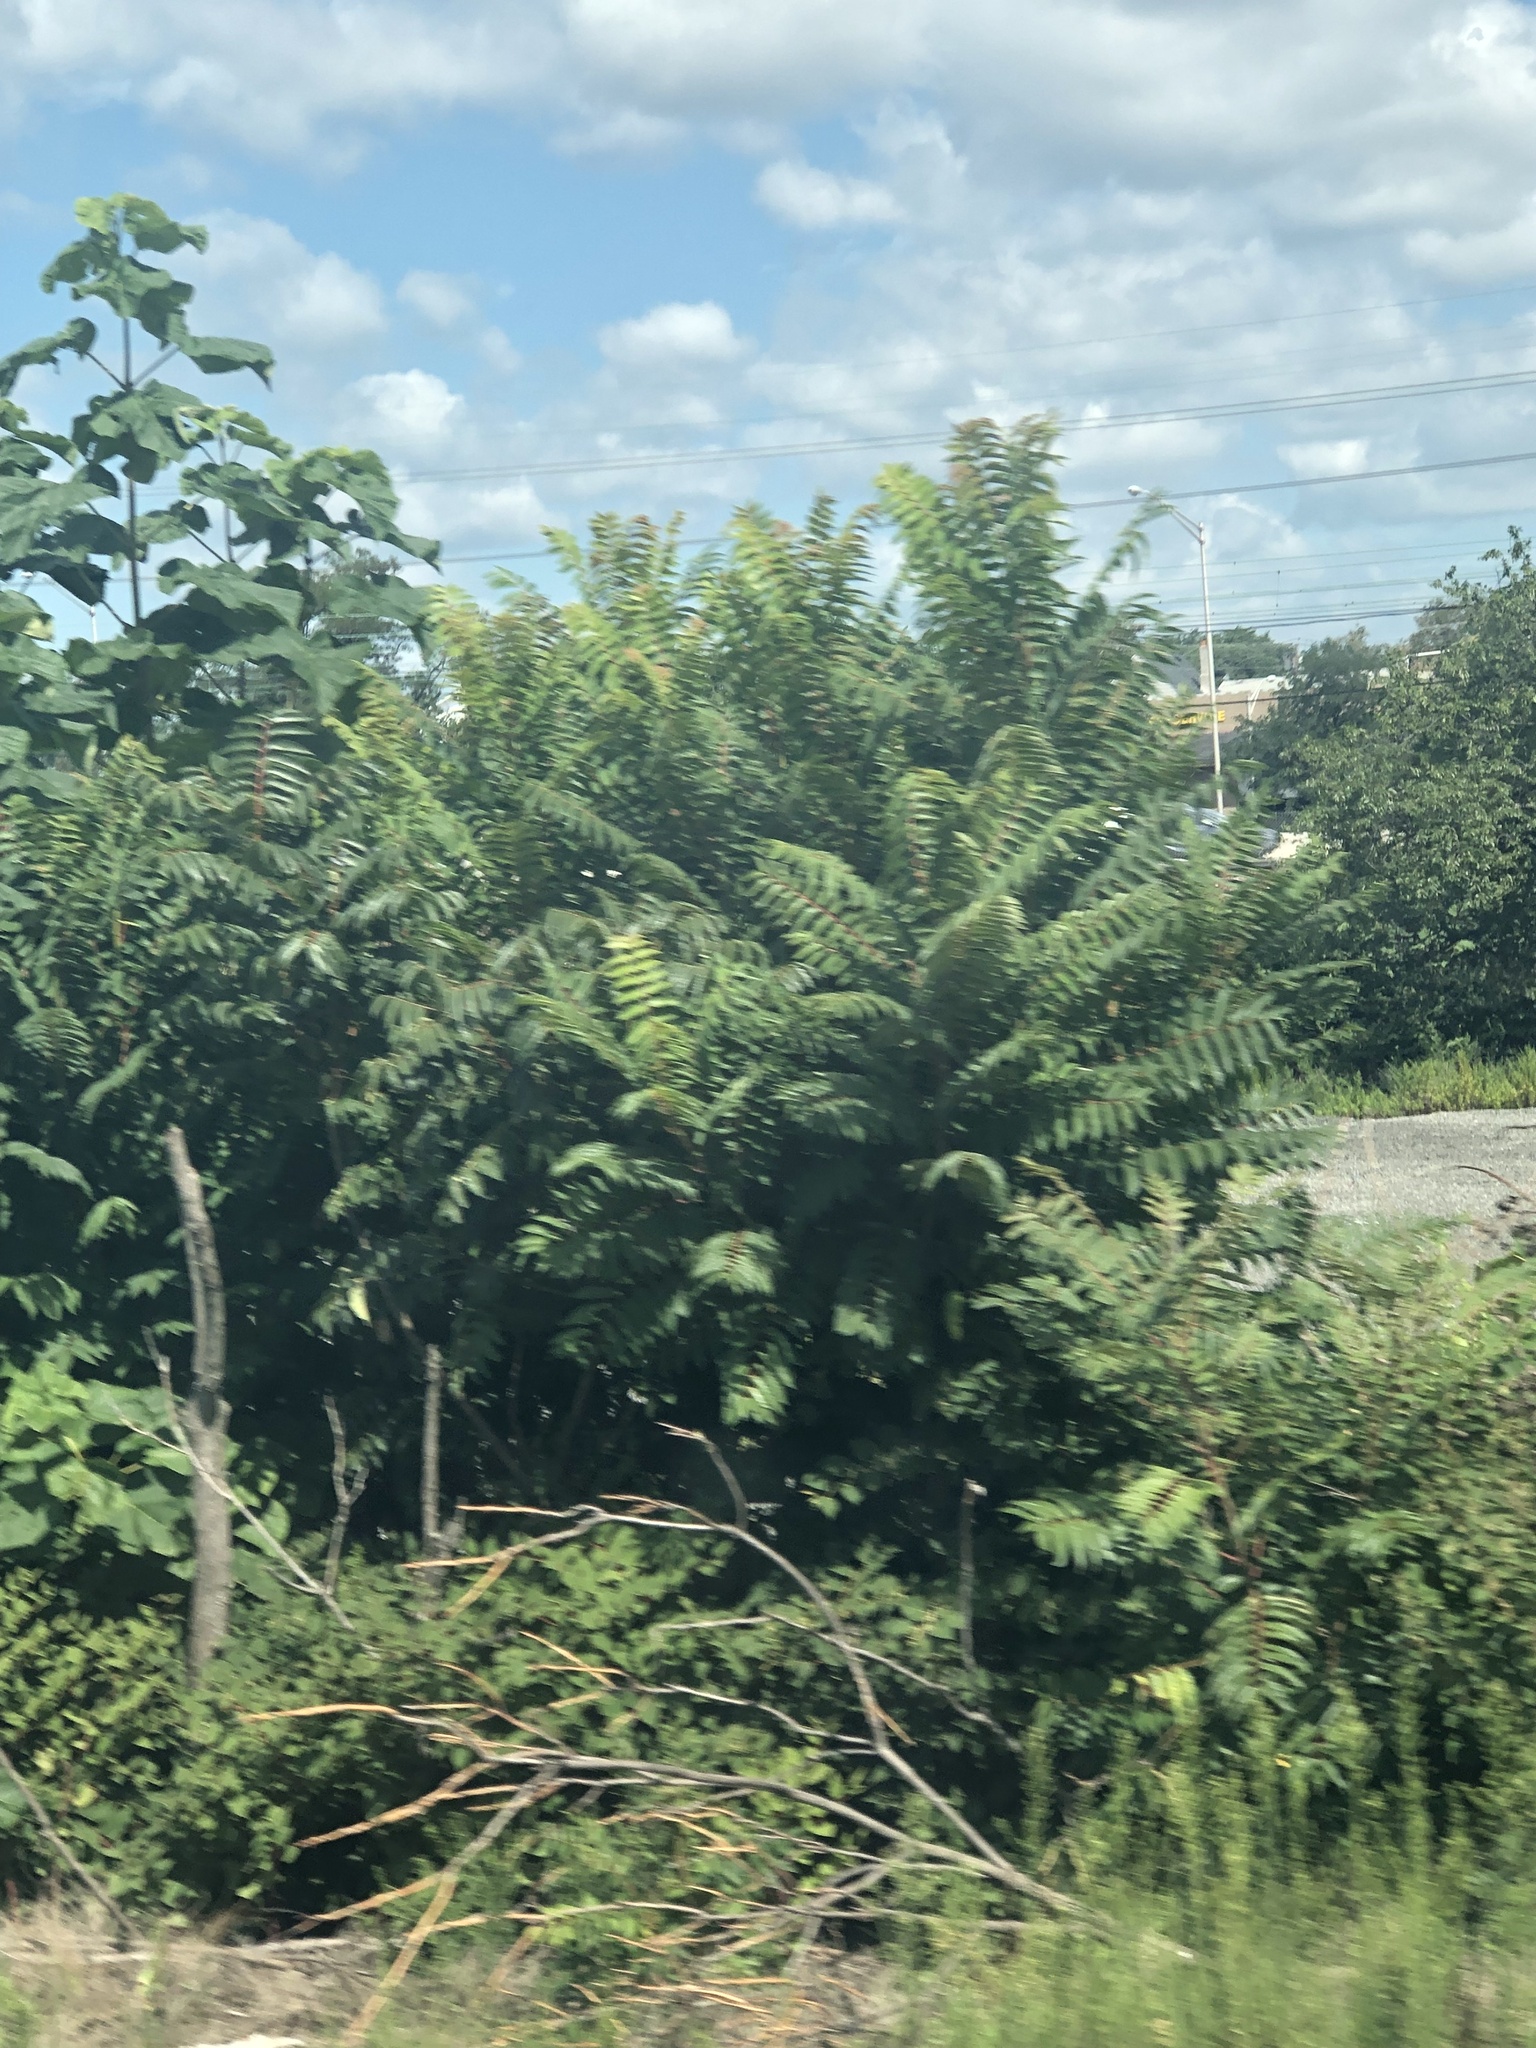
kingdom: Plantae
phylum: Tracheophyta
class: Magnoliopsida
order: Sapindales
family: Simaroubaceae
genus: Ailanthus
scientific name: Ailanthus altissima
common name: Tree-of-heaven
